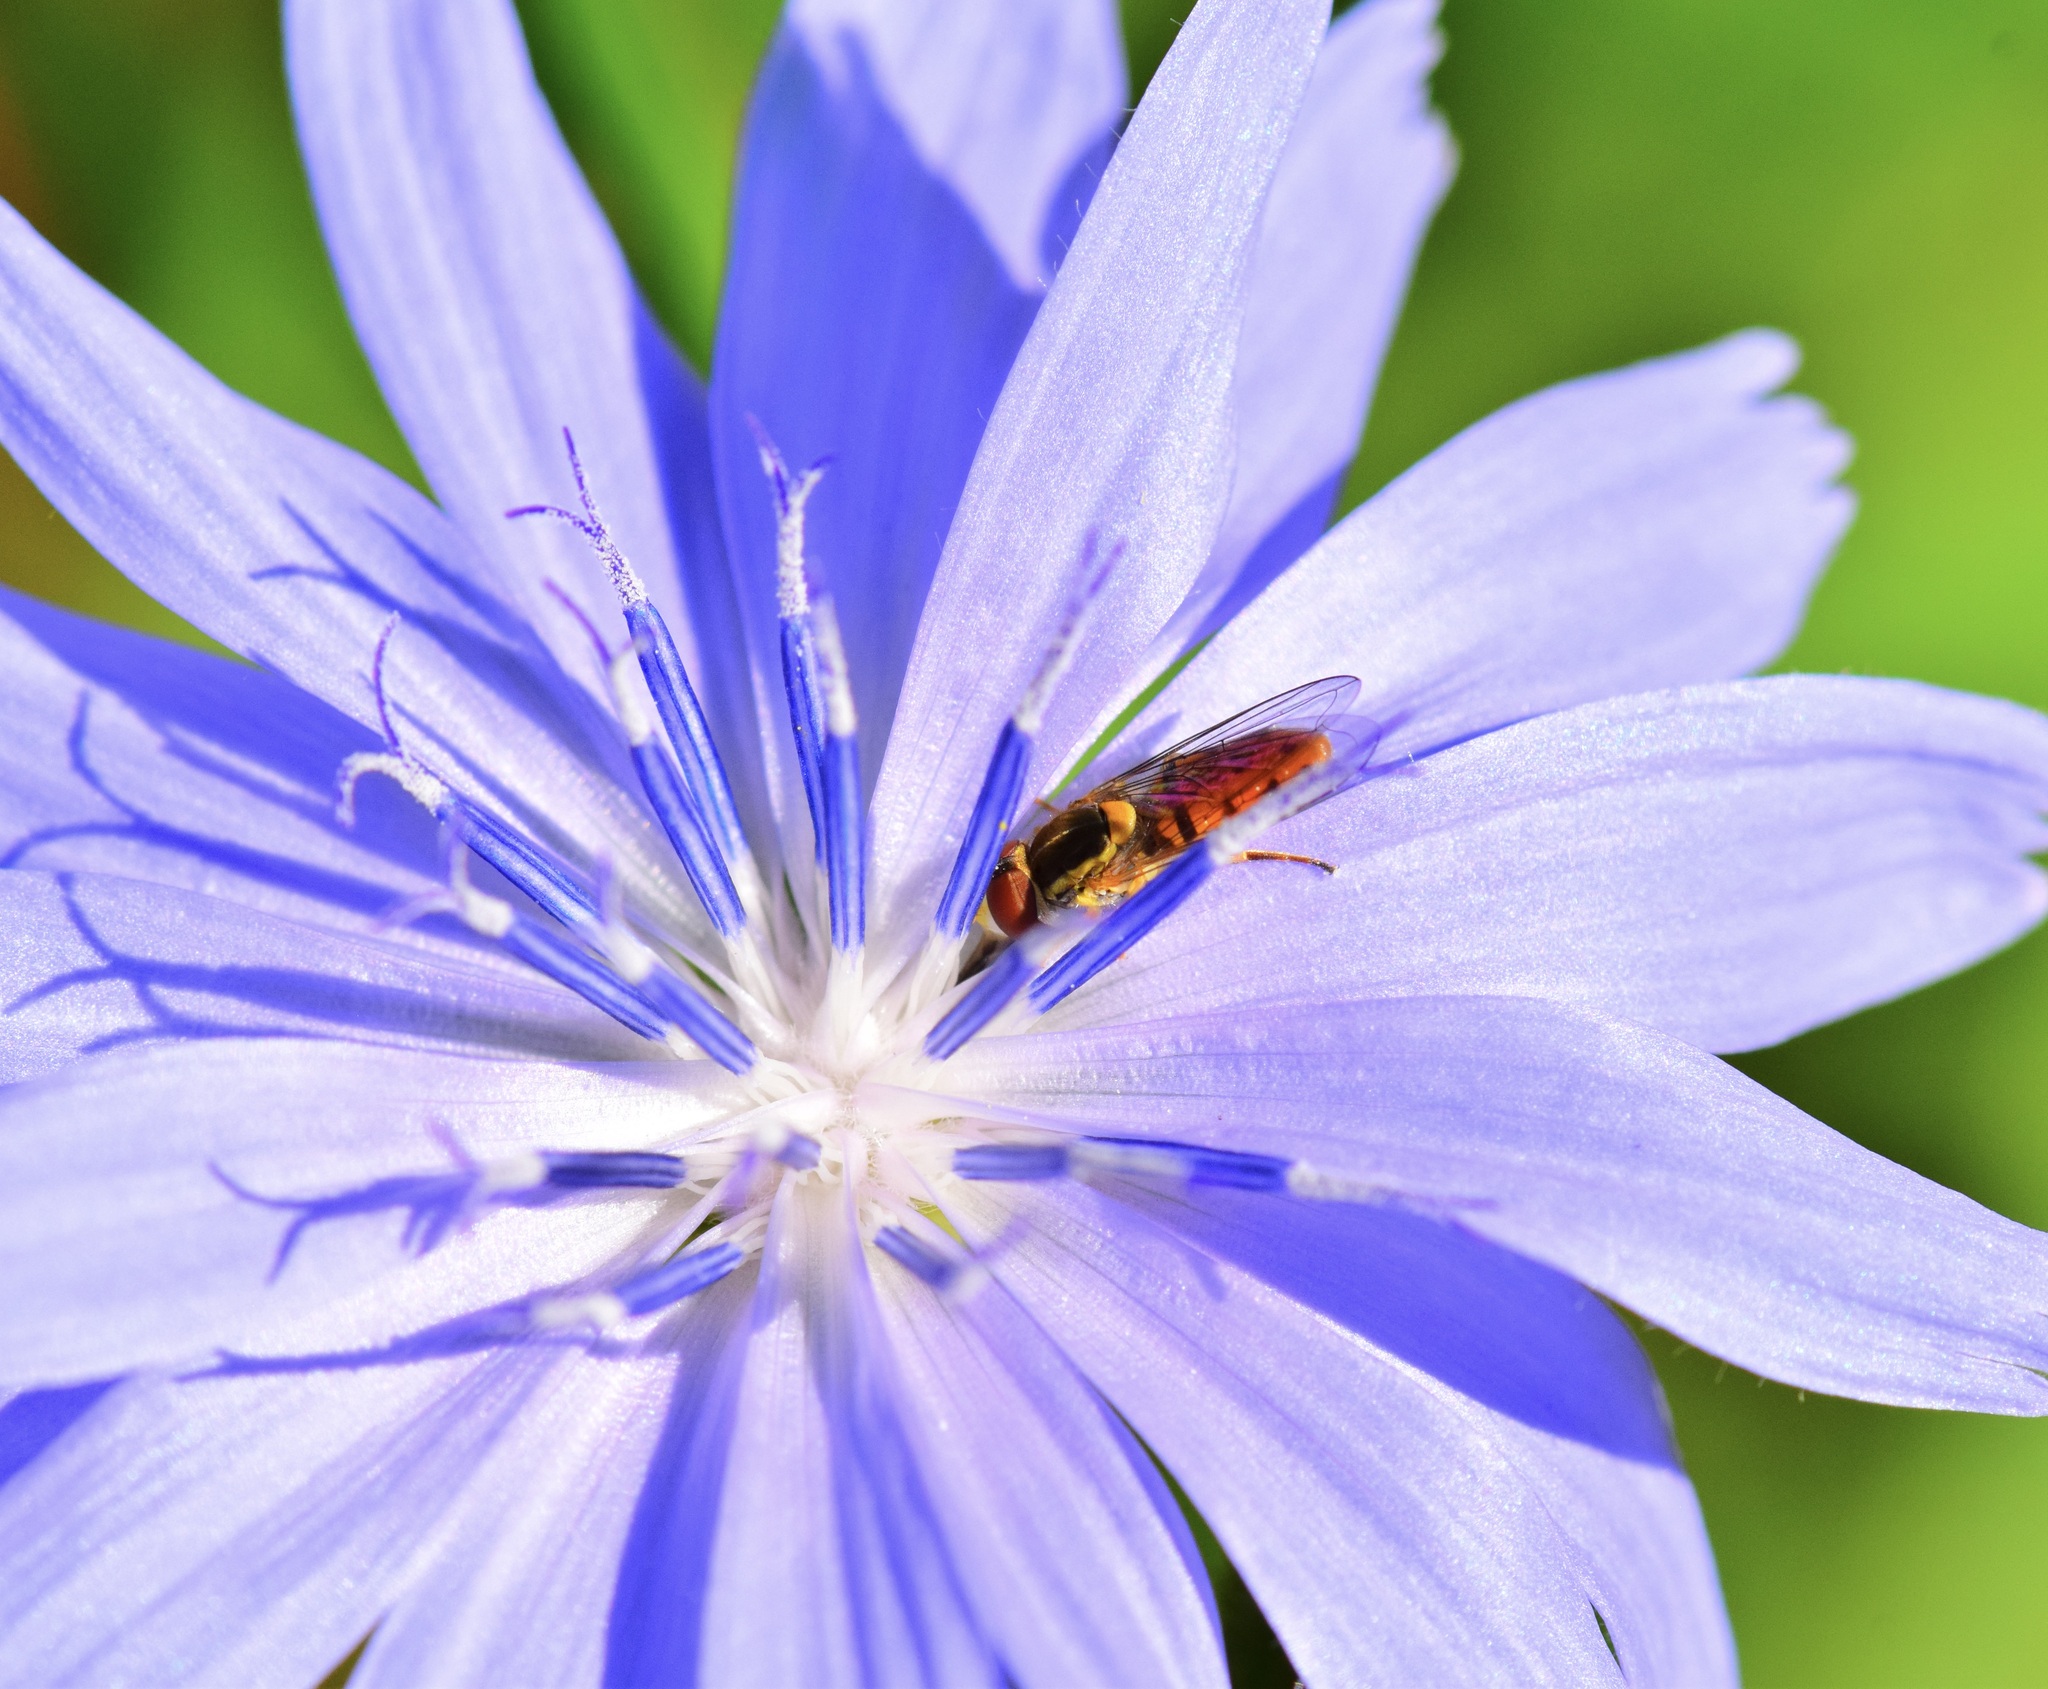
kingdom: Animalia
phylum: Arthropoda
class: Insecta
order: Diptera
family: Syrphidae
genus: Toxomerus
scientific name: Toxomerus marginatus
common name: Syrphid fly
